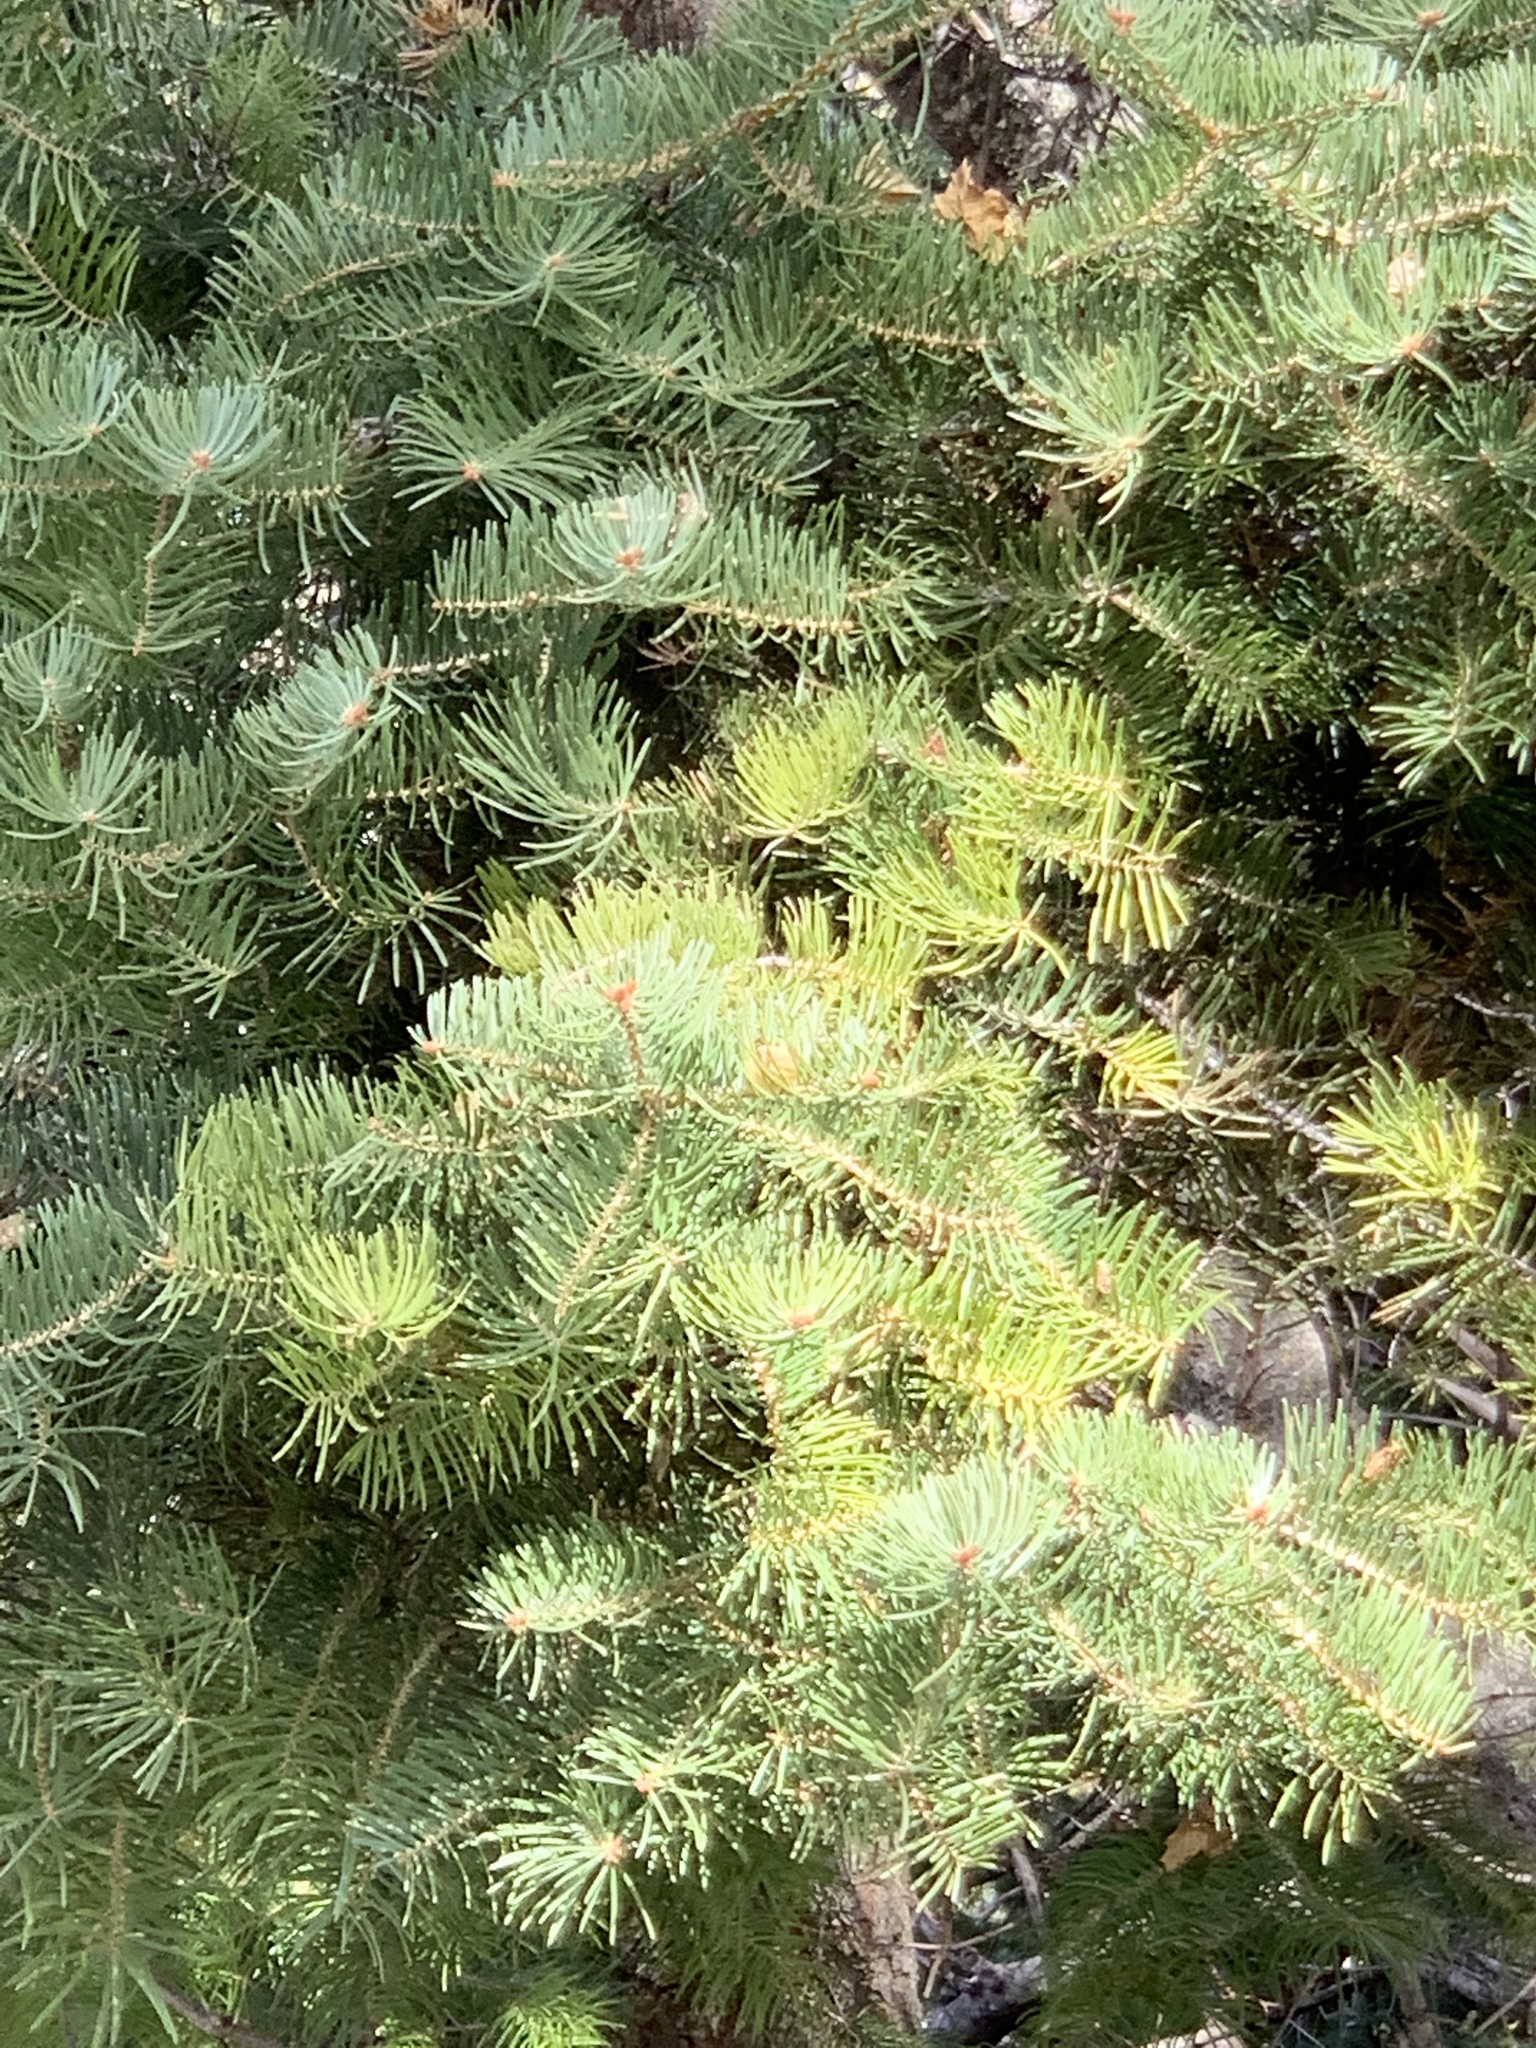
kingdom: Plantae
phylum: Tracheophyta
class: Pinopsida
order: Pinales
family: Pinaceae
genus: Abies
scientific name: Abies concolor
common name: Colorado fir
